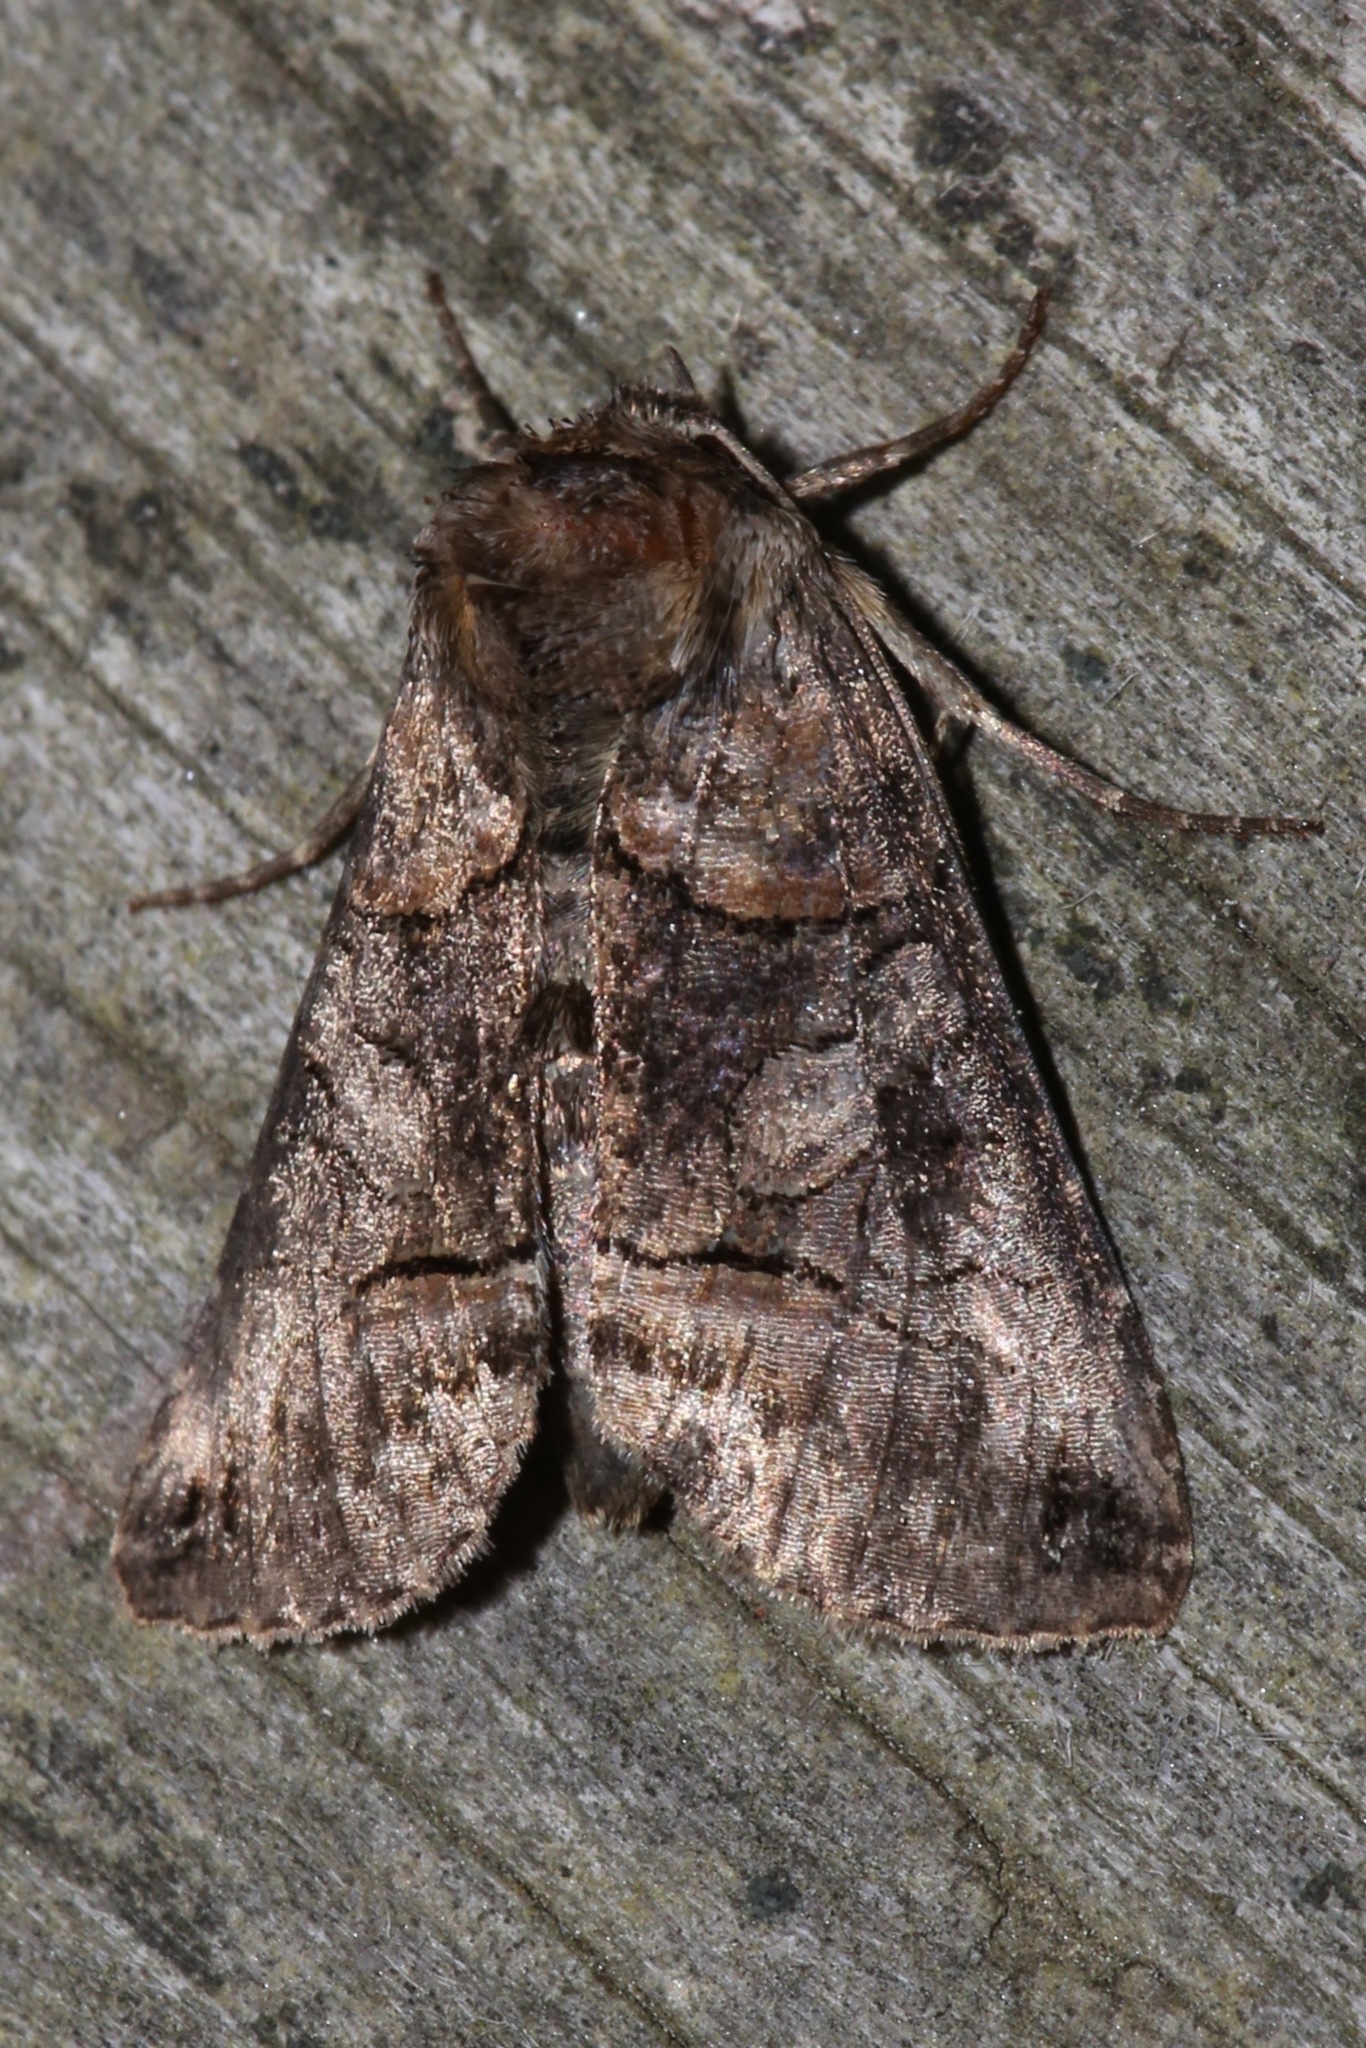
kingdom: Animalia
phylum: Arthropoda
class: Insecta
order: Lepidoptera
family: Noctuidae
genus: Abrostola
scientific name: Abrostola urentis
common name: Spectacled nettle moth
